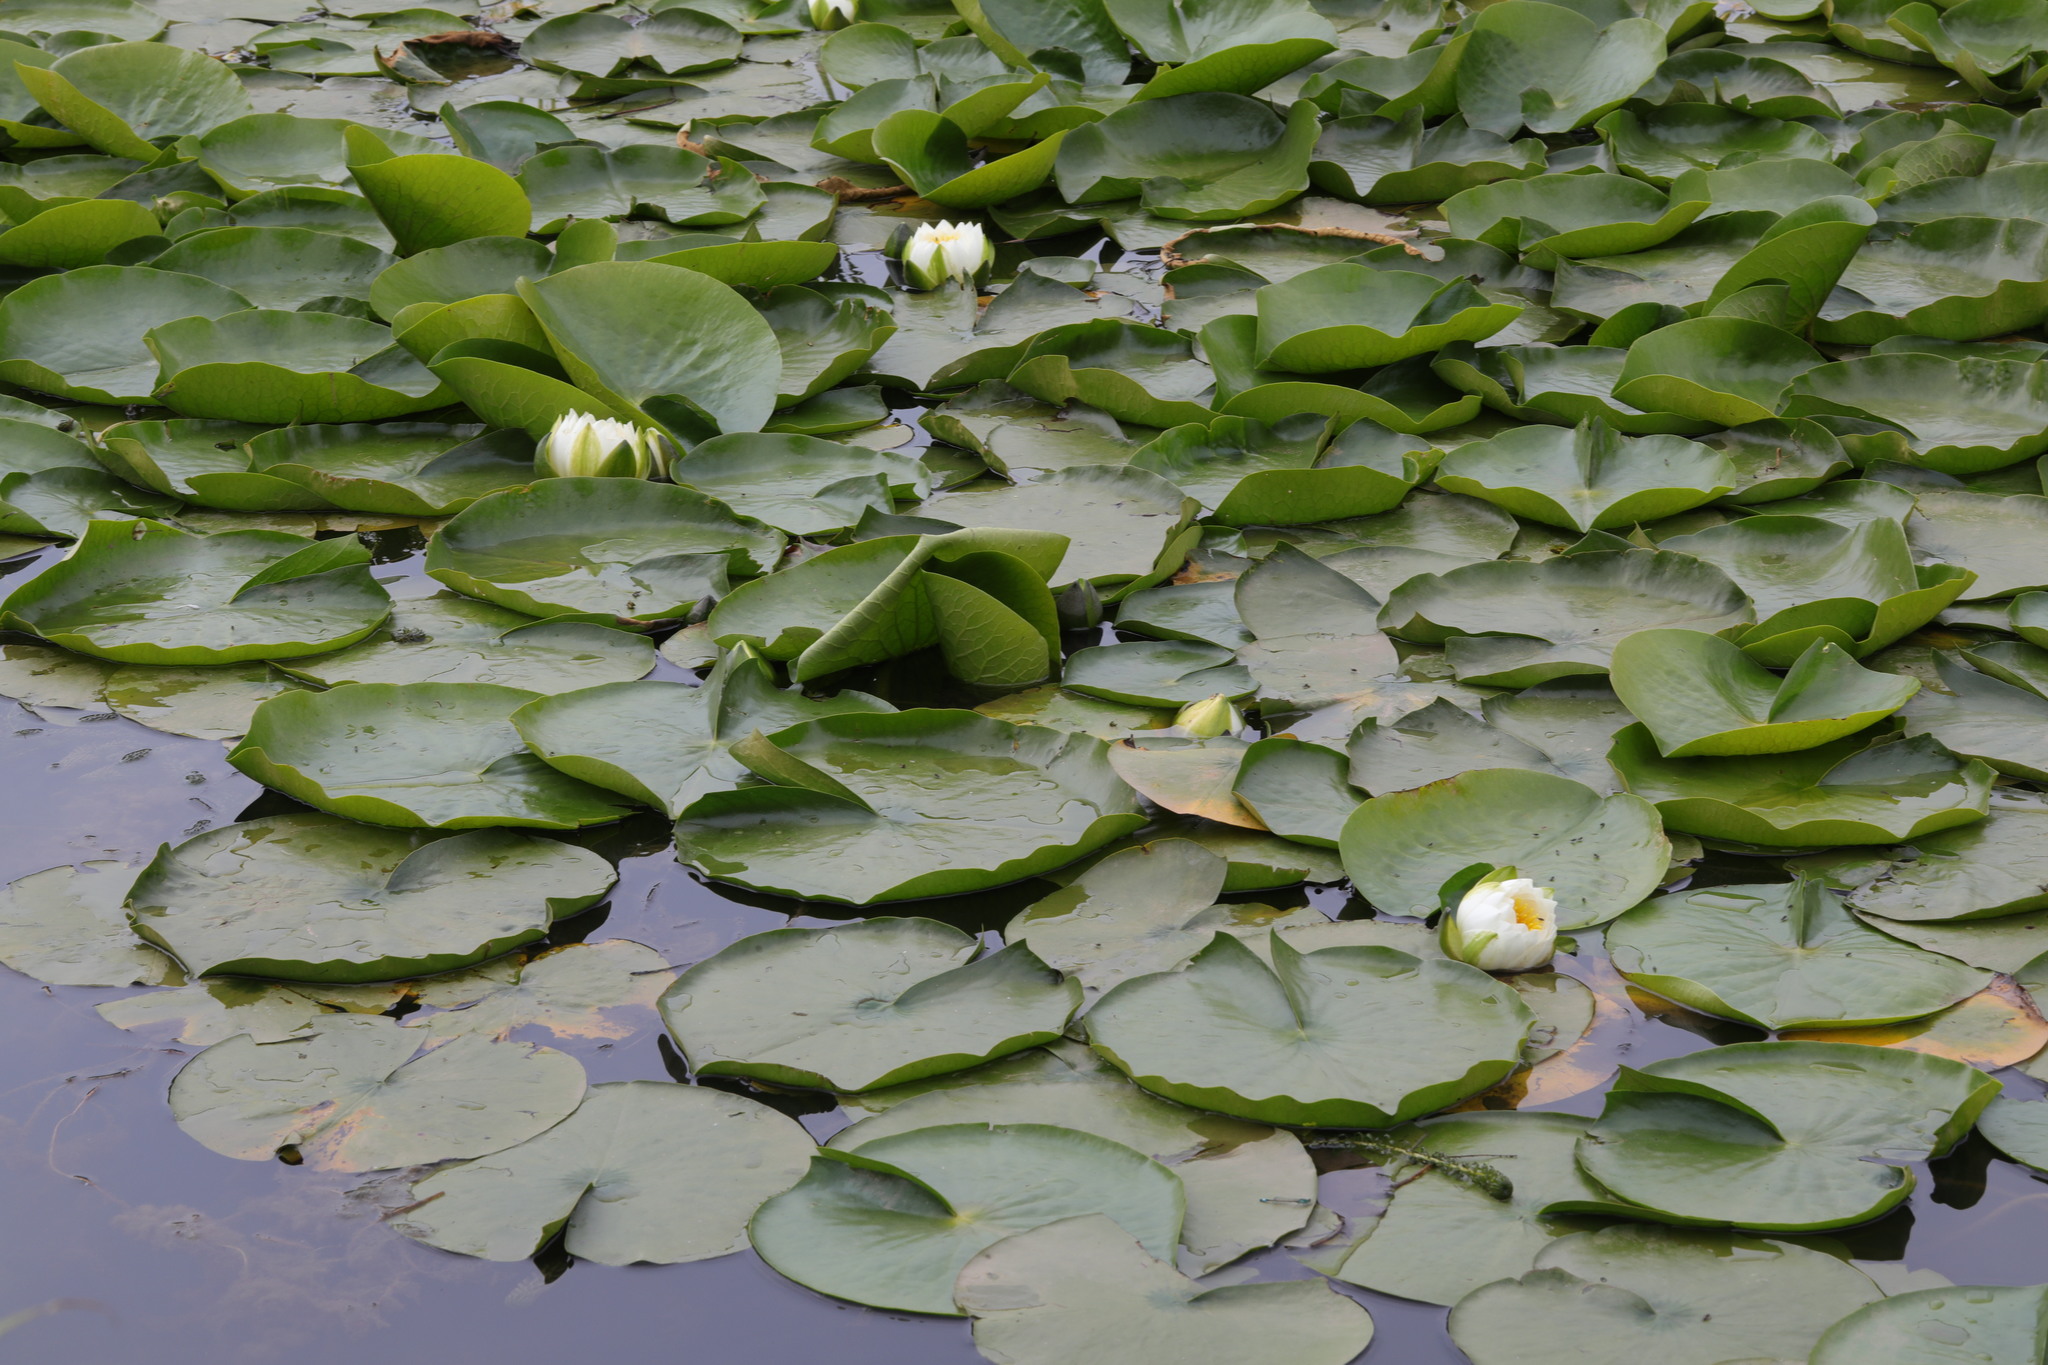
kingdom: Plantae
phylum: Tracheophyta
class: Magnoliopsida
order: Nymphaeales
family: Nymphaeaceae
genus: Nymphaea
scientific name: Nymphaea alba
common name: White water-lily
